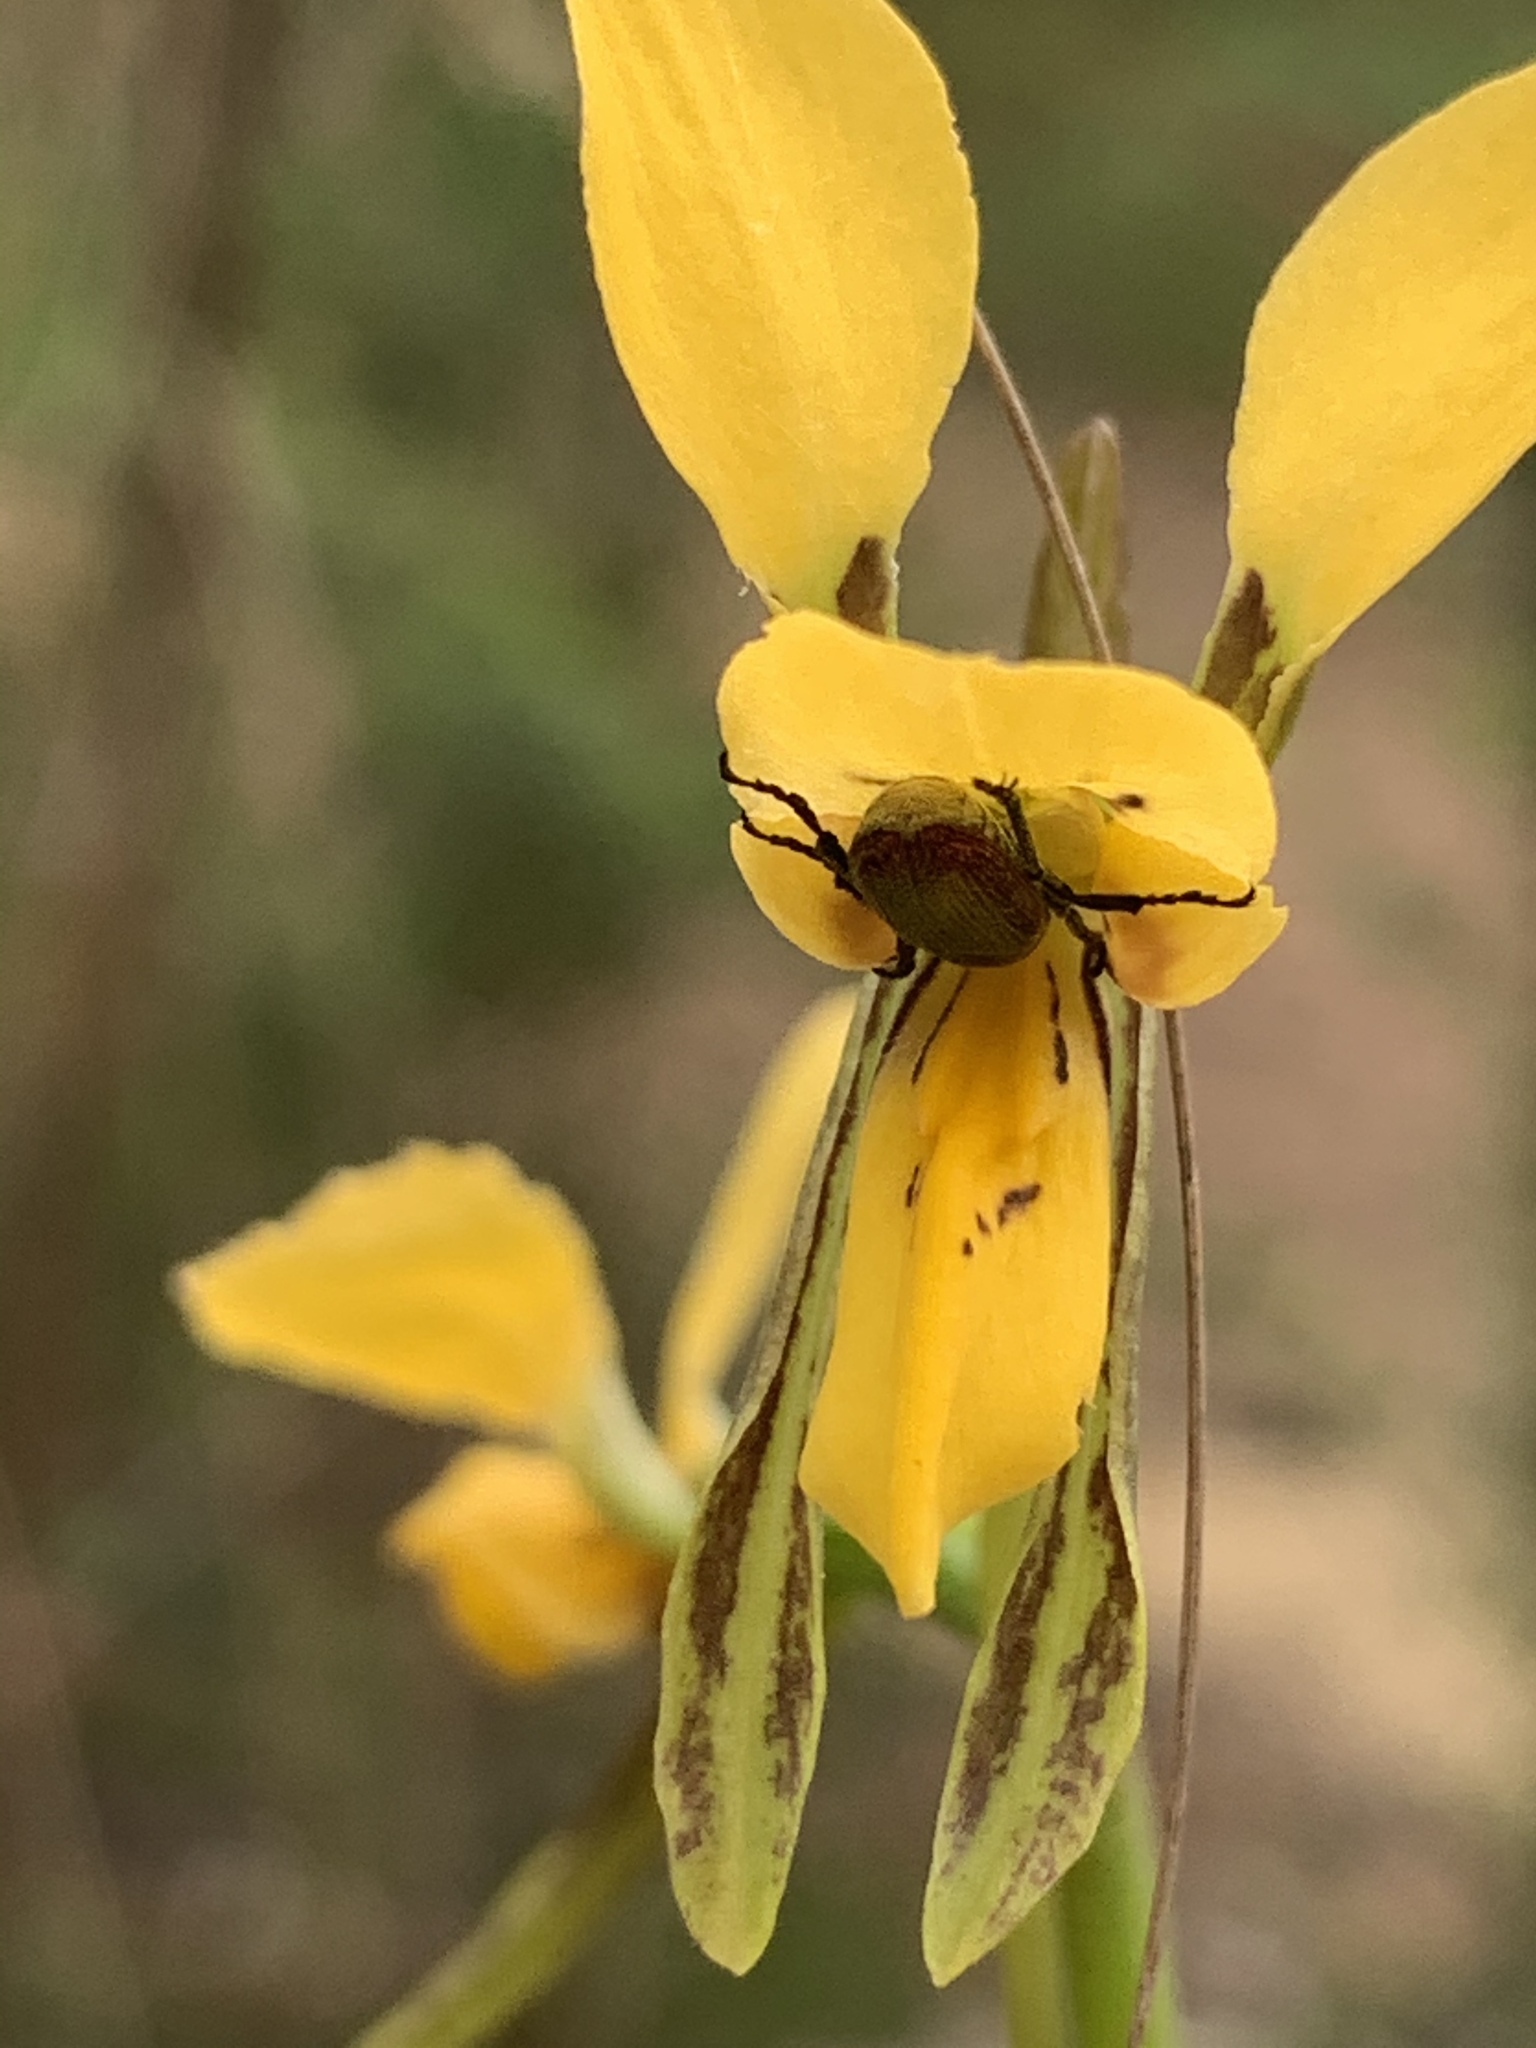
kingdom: Plantae
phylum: Tracheophyta
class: Liliopsida
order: Asparagales
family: Orchidaceae
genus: Diuris
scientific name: Diuris aurea
